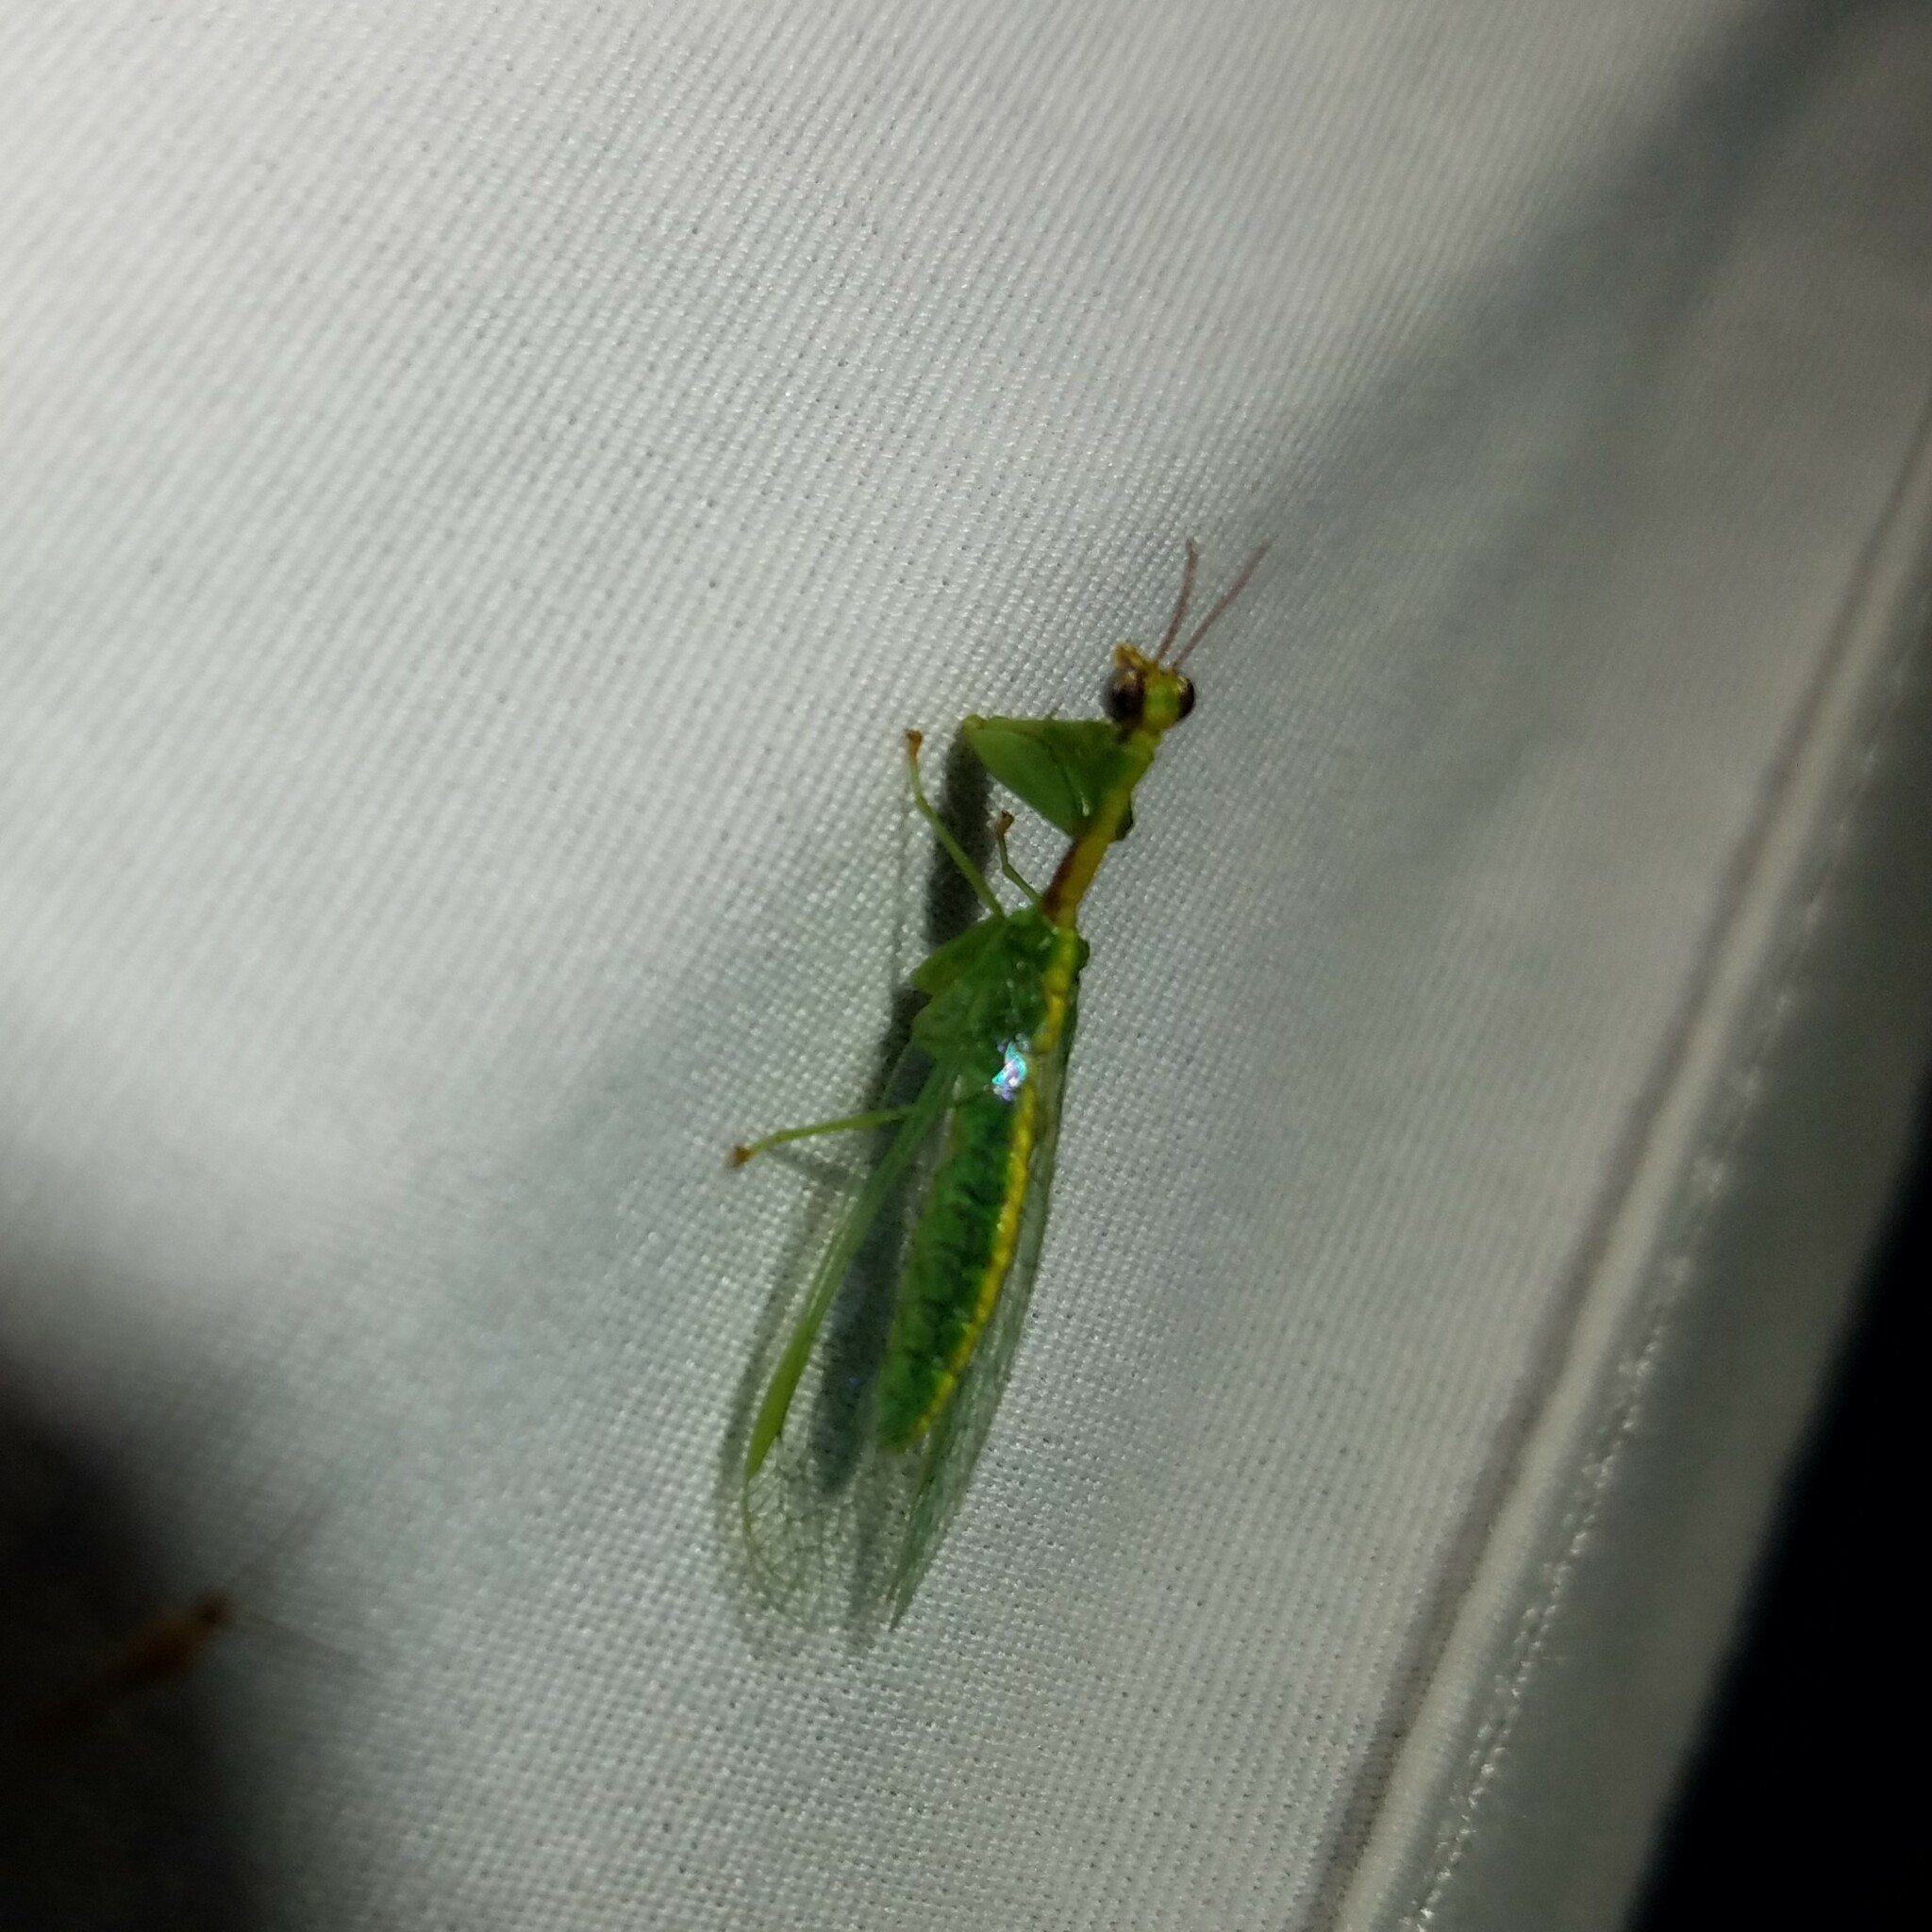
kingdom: Animalia
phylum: Arthropoda
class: Insecta
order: Neuroptera
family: Mantispidae
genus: Zeugomantispa
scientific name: Zeugomantispa minuta
